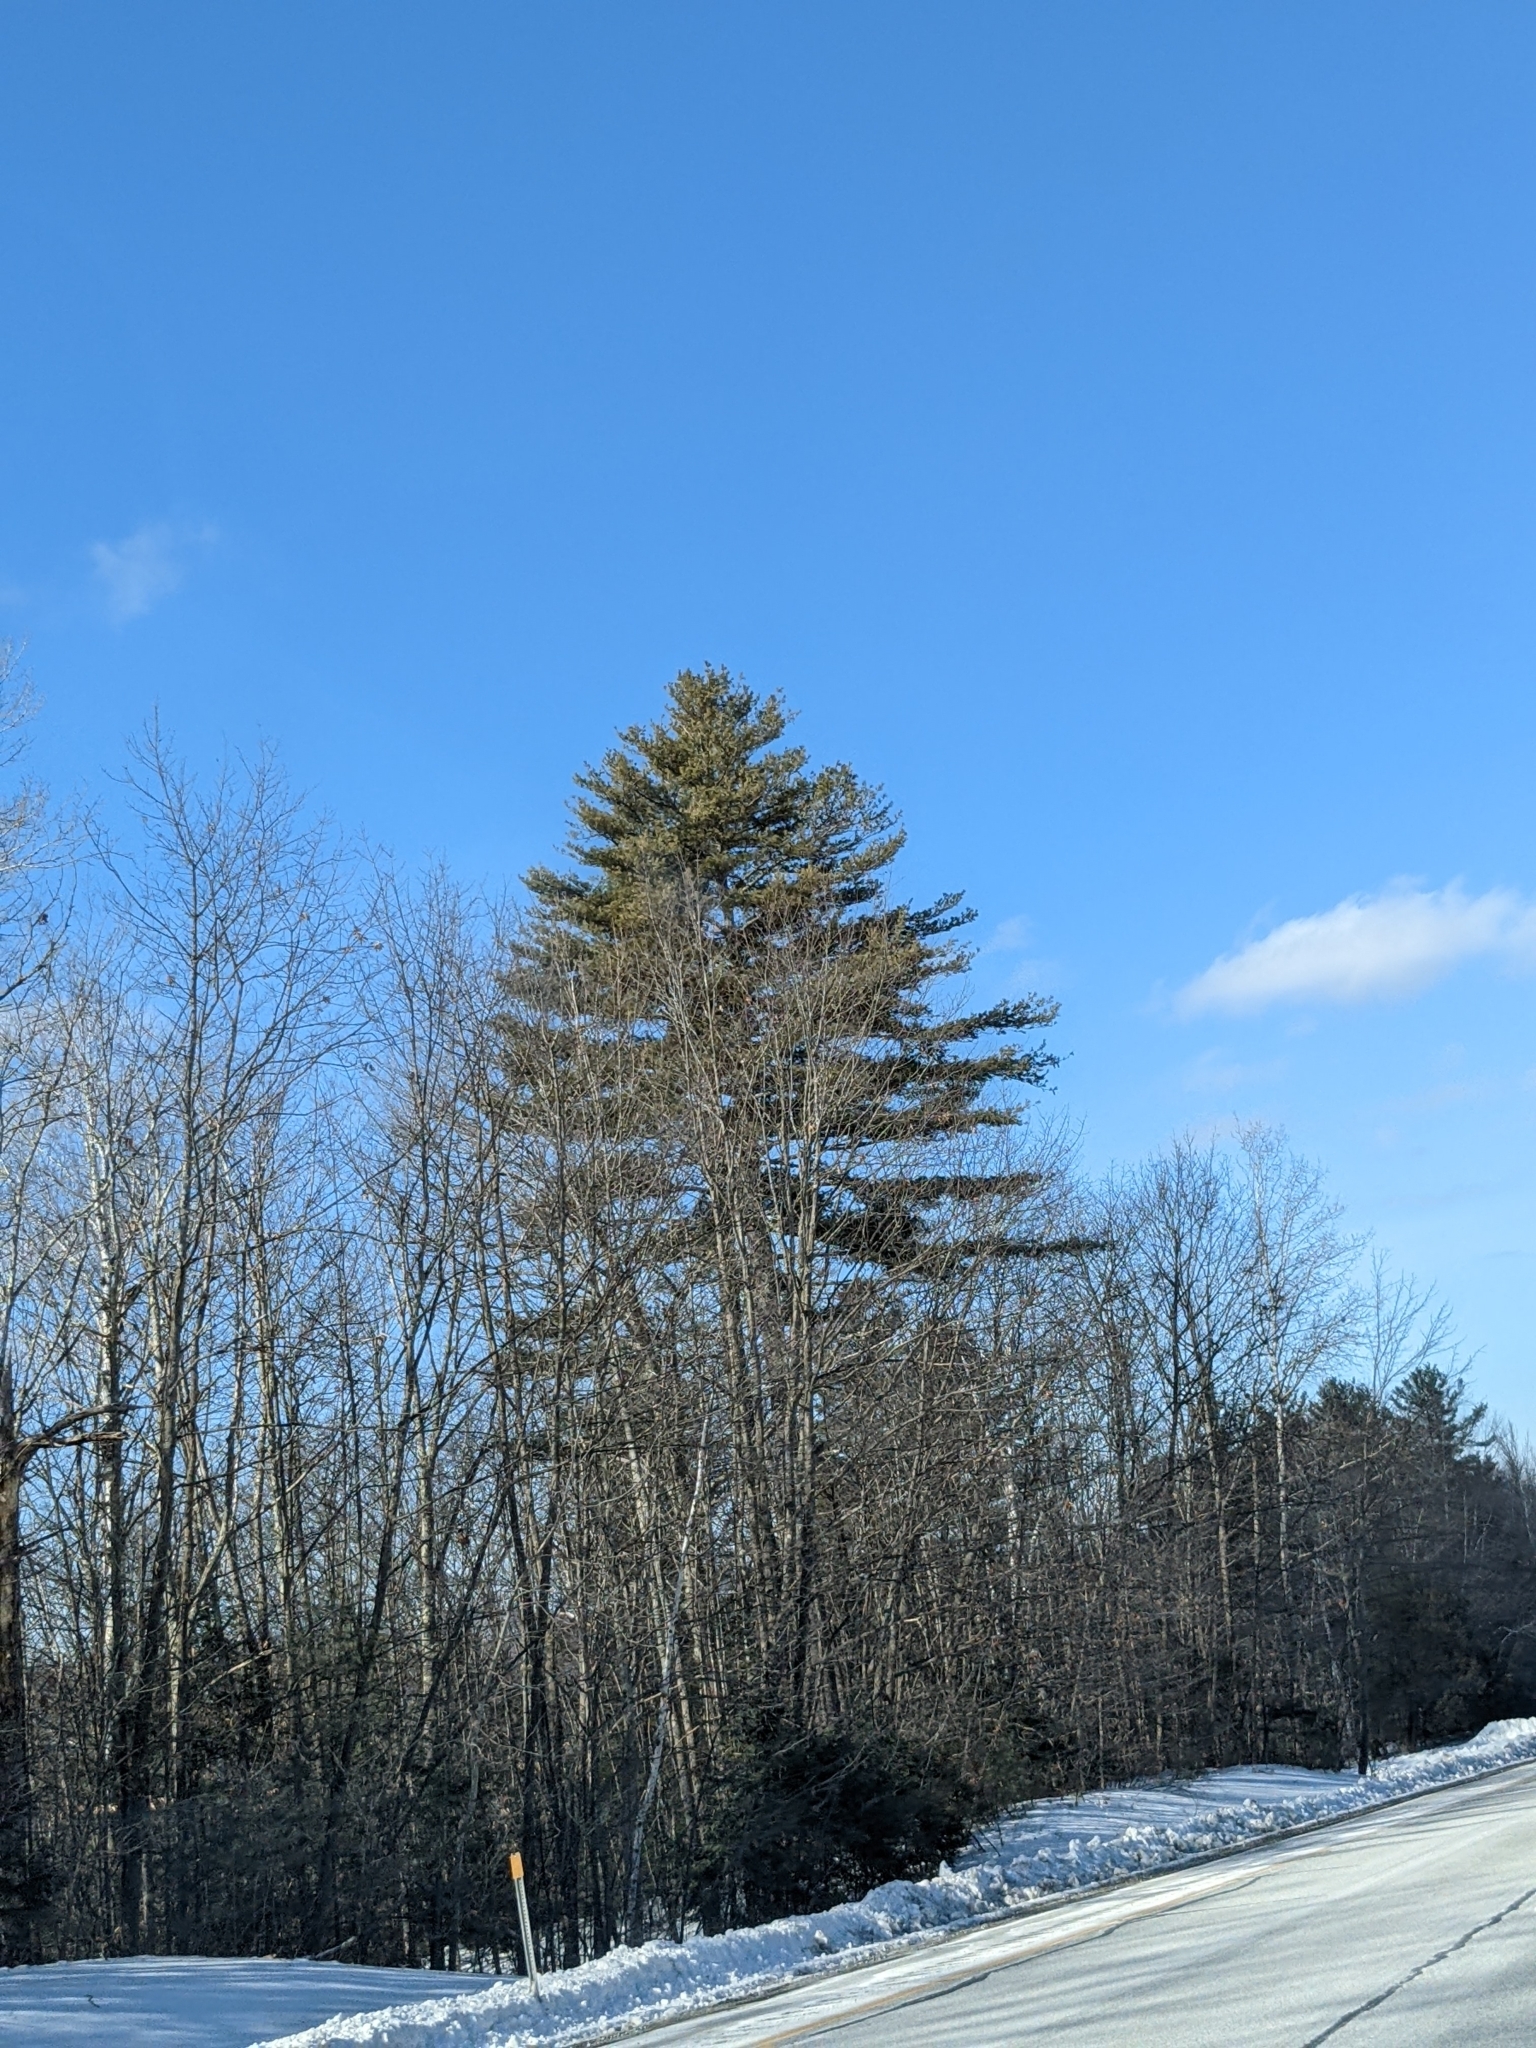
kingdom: Plantae
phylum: Tracheophyta
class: Pinopsida
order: Pinales
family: Pinaceae
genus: Pinus
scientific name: Pinus strobus
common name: Weymouth pine
